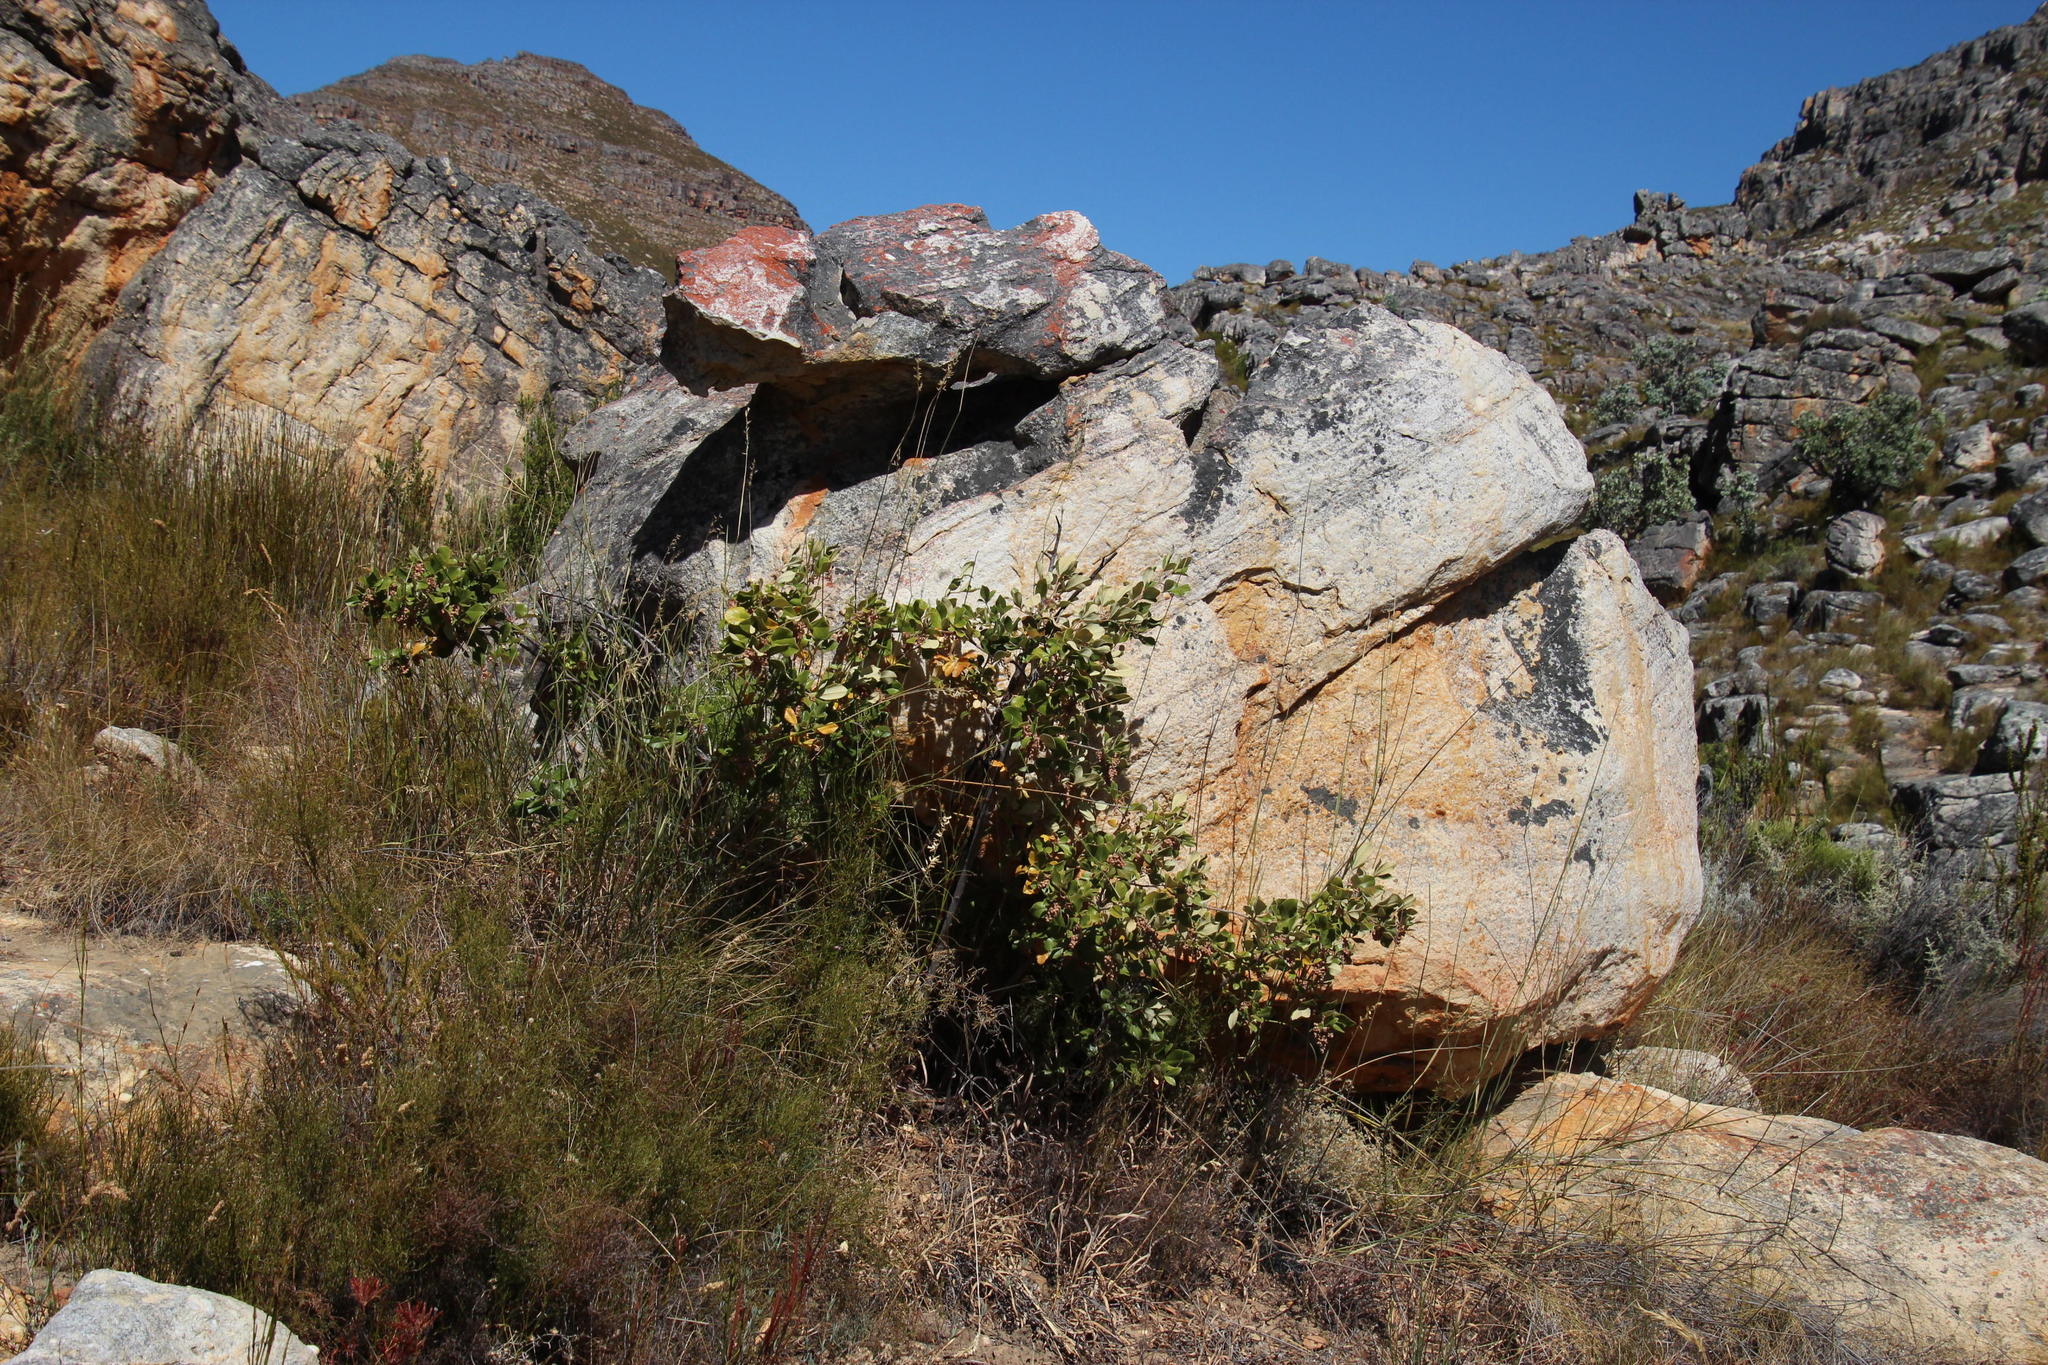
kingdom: Plantae
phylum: Tracheophyta
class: Magnoliopsida
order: Sapindales
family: Anacardiaceae
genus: Searsia
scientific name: Searsia tomentosa
